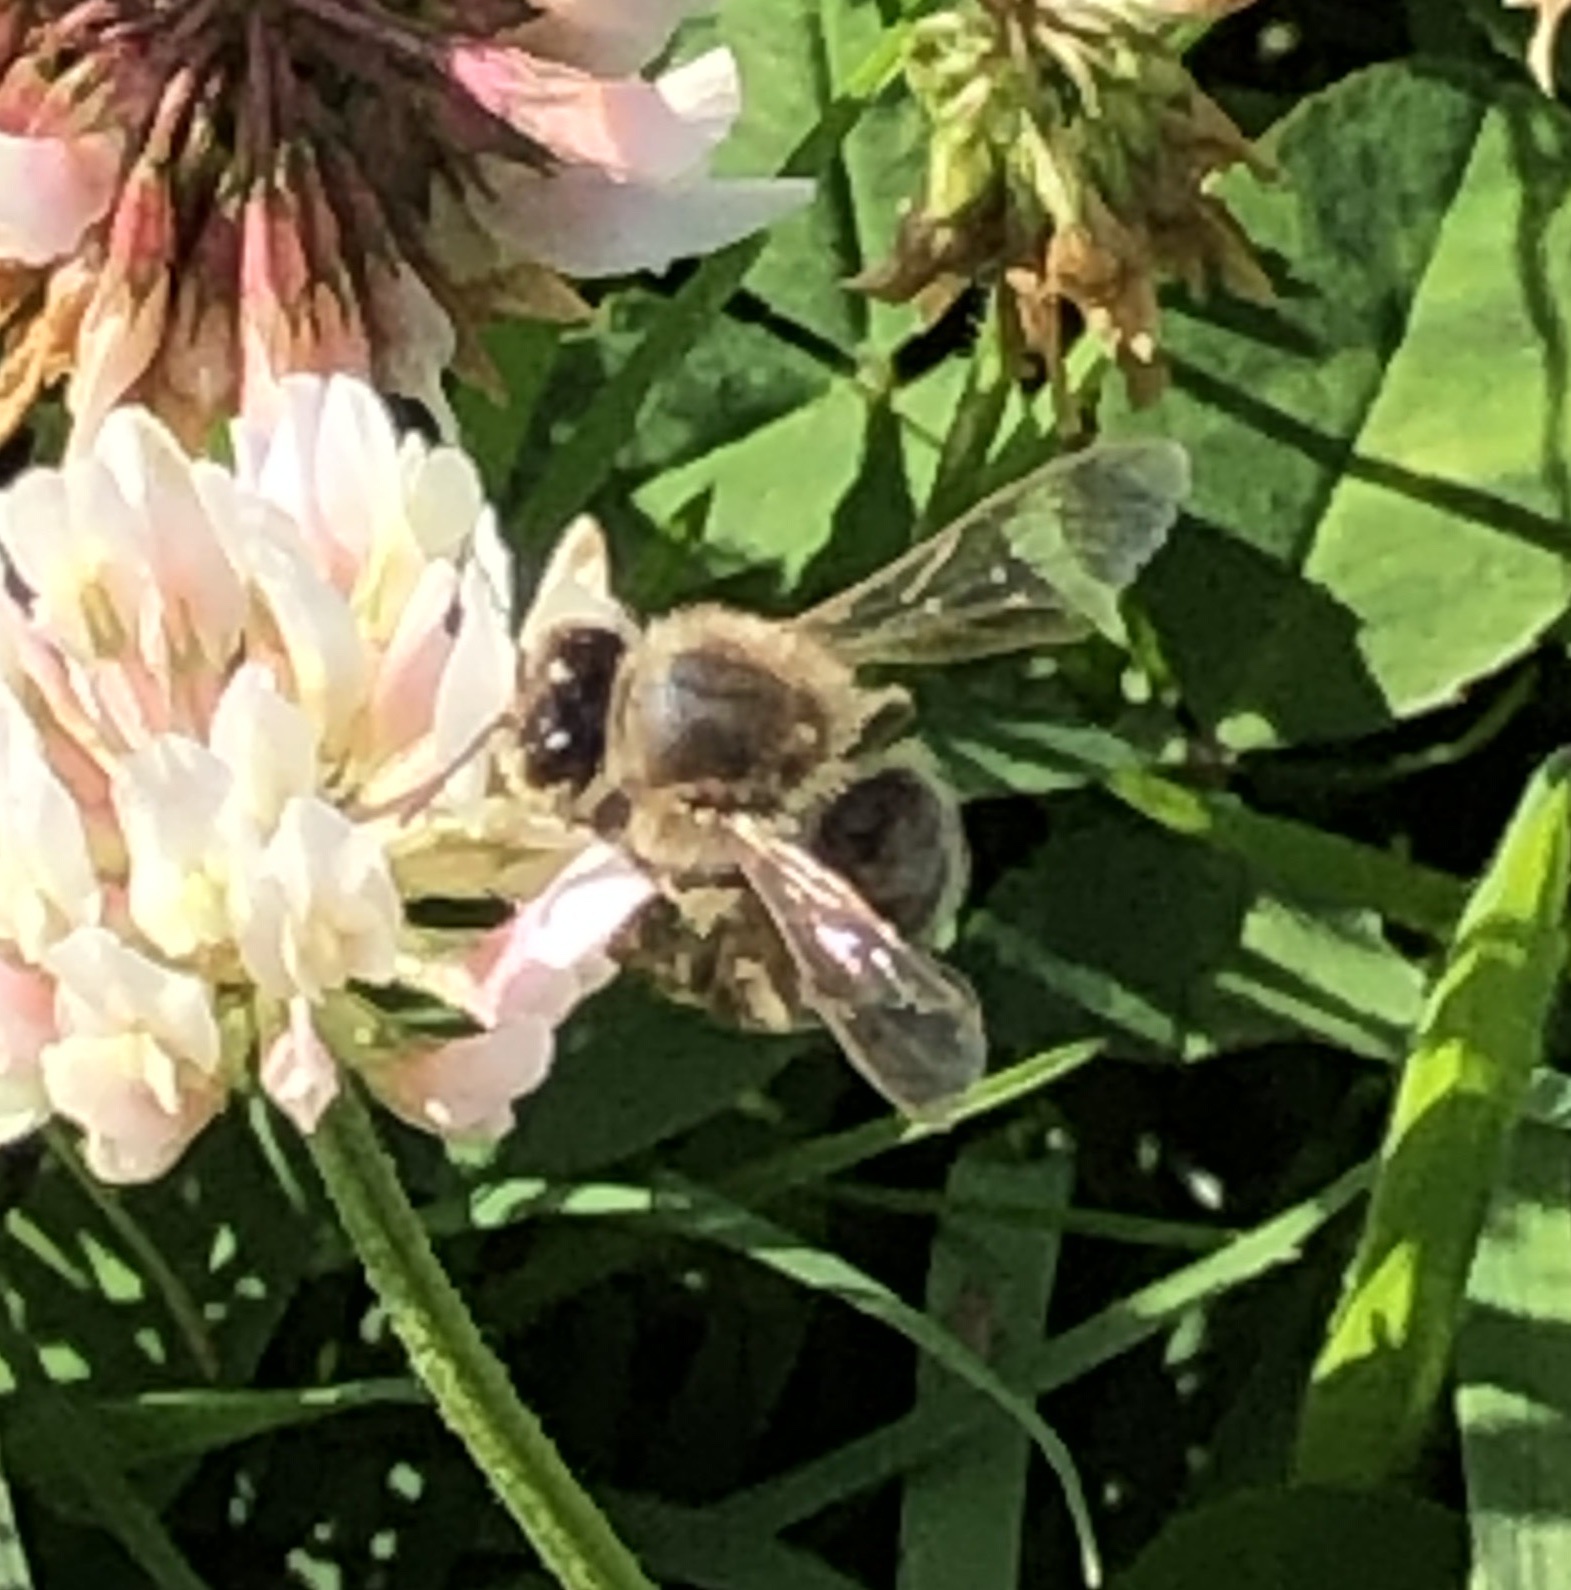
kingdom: Animalia
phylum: Arthropoda
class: Insecta
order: Hymenoptera
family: Apidae
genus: Apis
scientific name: Apis mellifera
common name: Honey bee
